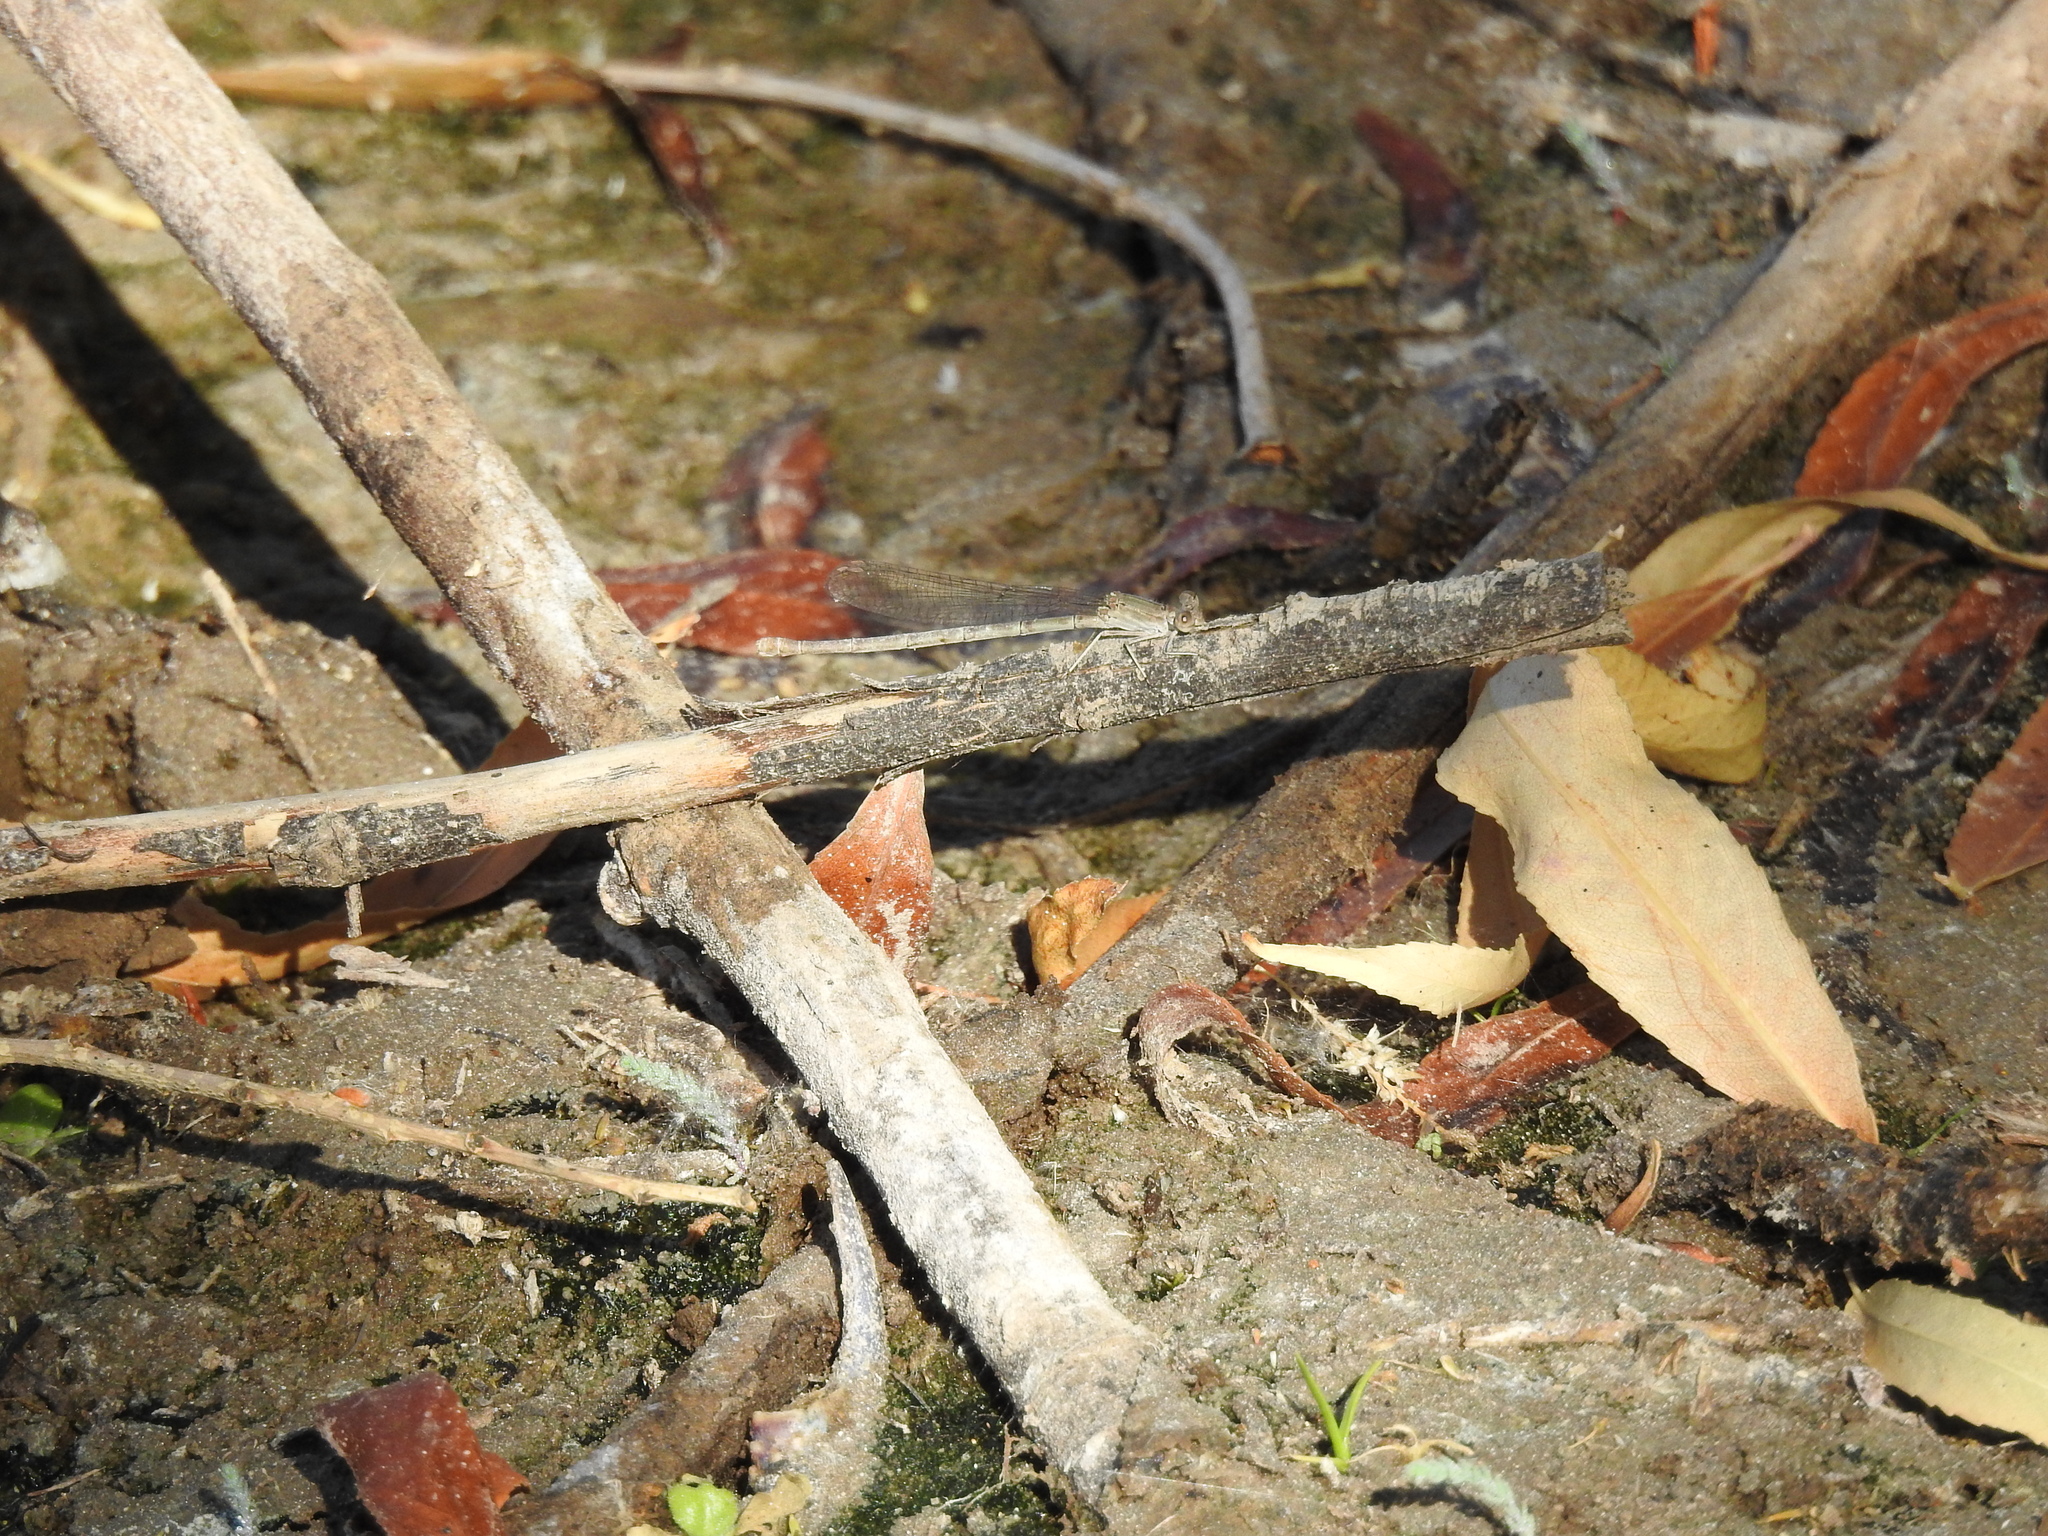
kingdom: Animalia
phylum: Arthropoda
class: Insecta
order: Odonata
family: Coenagrionidae
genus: Argia
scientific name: Argia sedula
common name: Blue-ringed dancer
